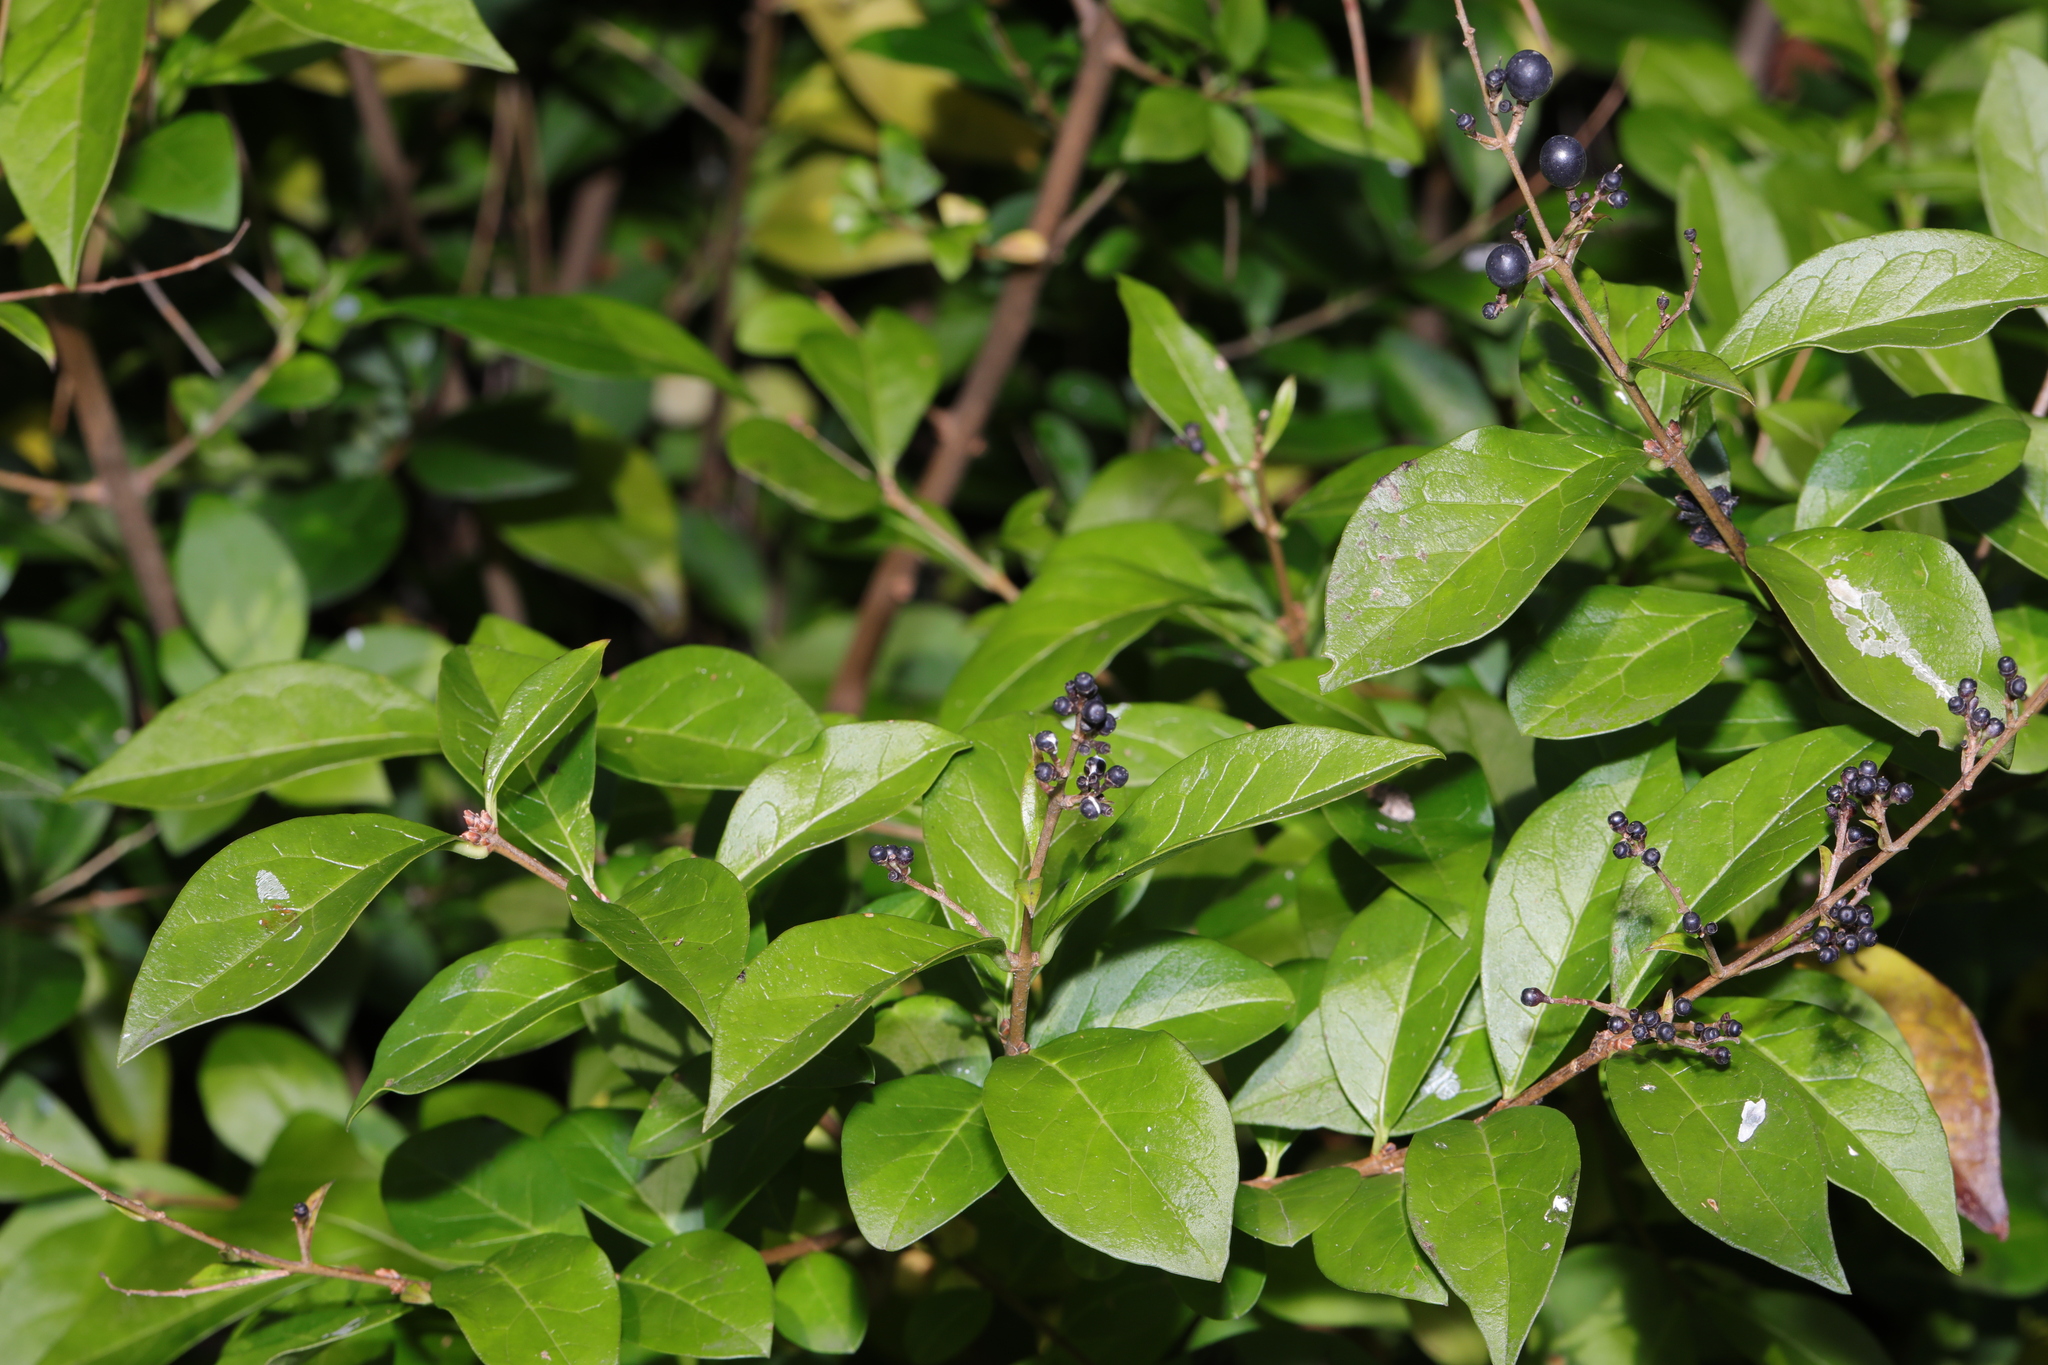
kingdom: Plantae
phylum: Tracheophyta
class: Magnoliopsida
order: Lamiales
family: Oleaceae
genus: Ligustrum
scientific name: Ligustrum ovalifolium
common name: California privet
